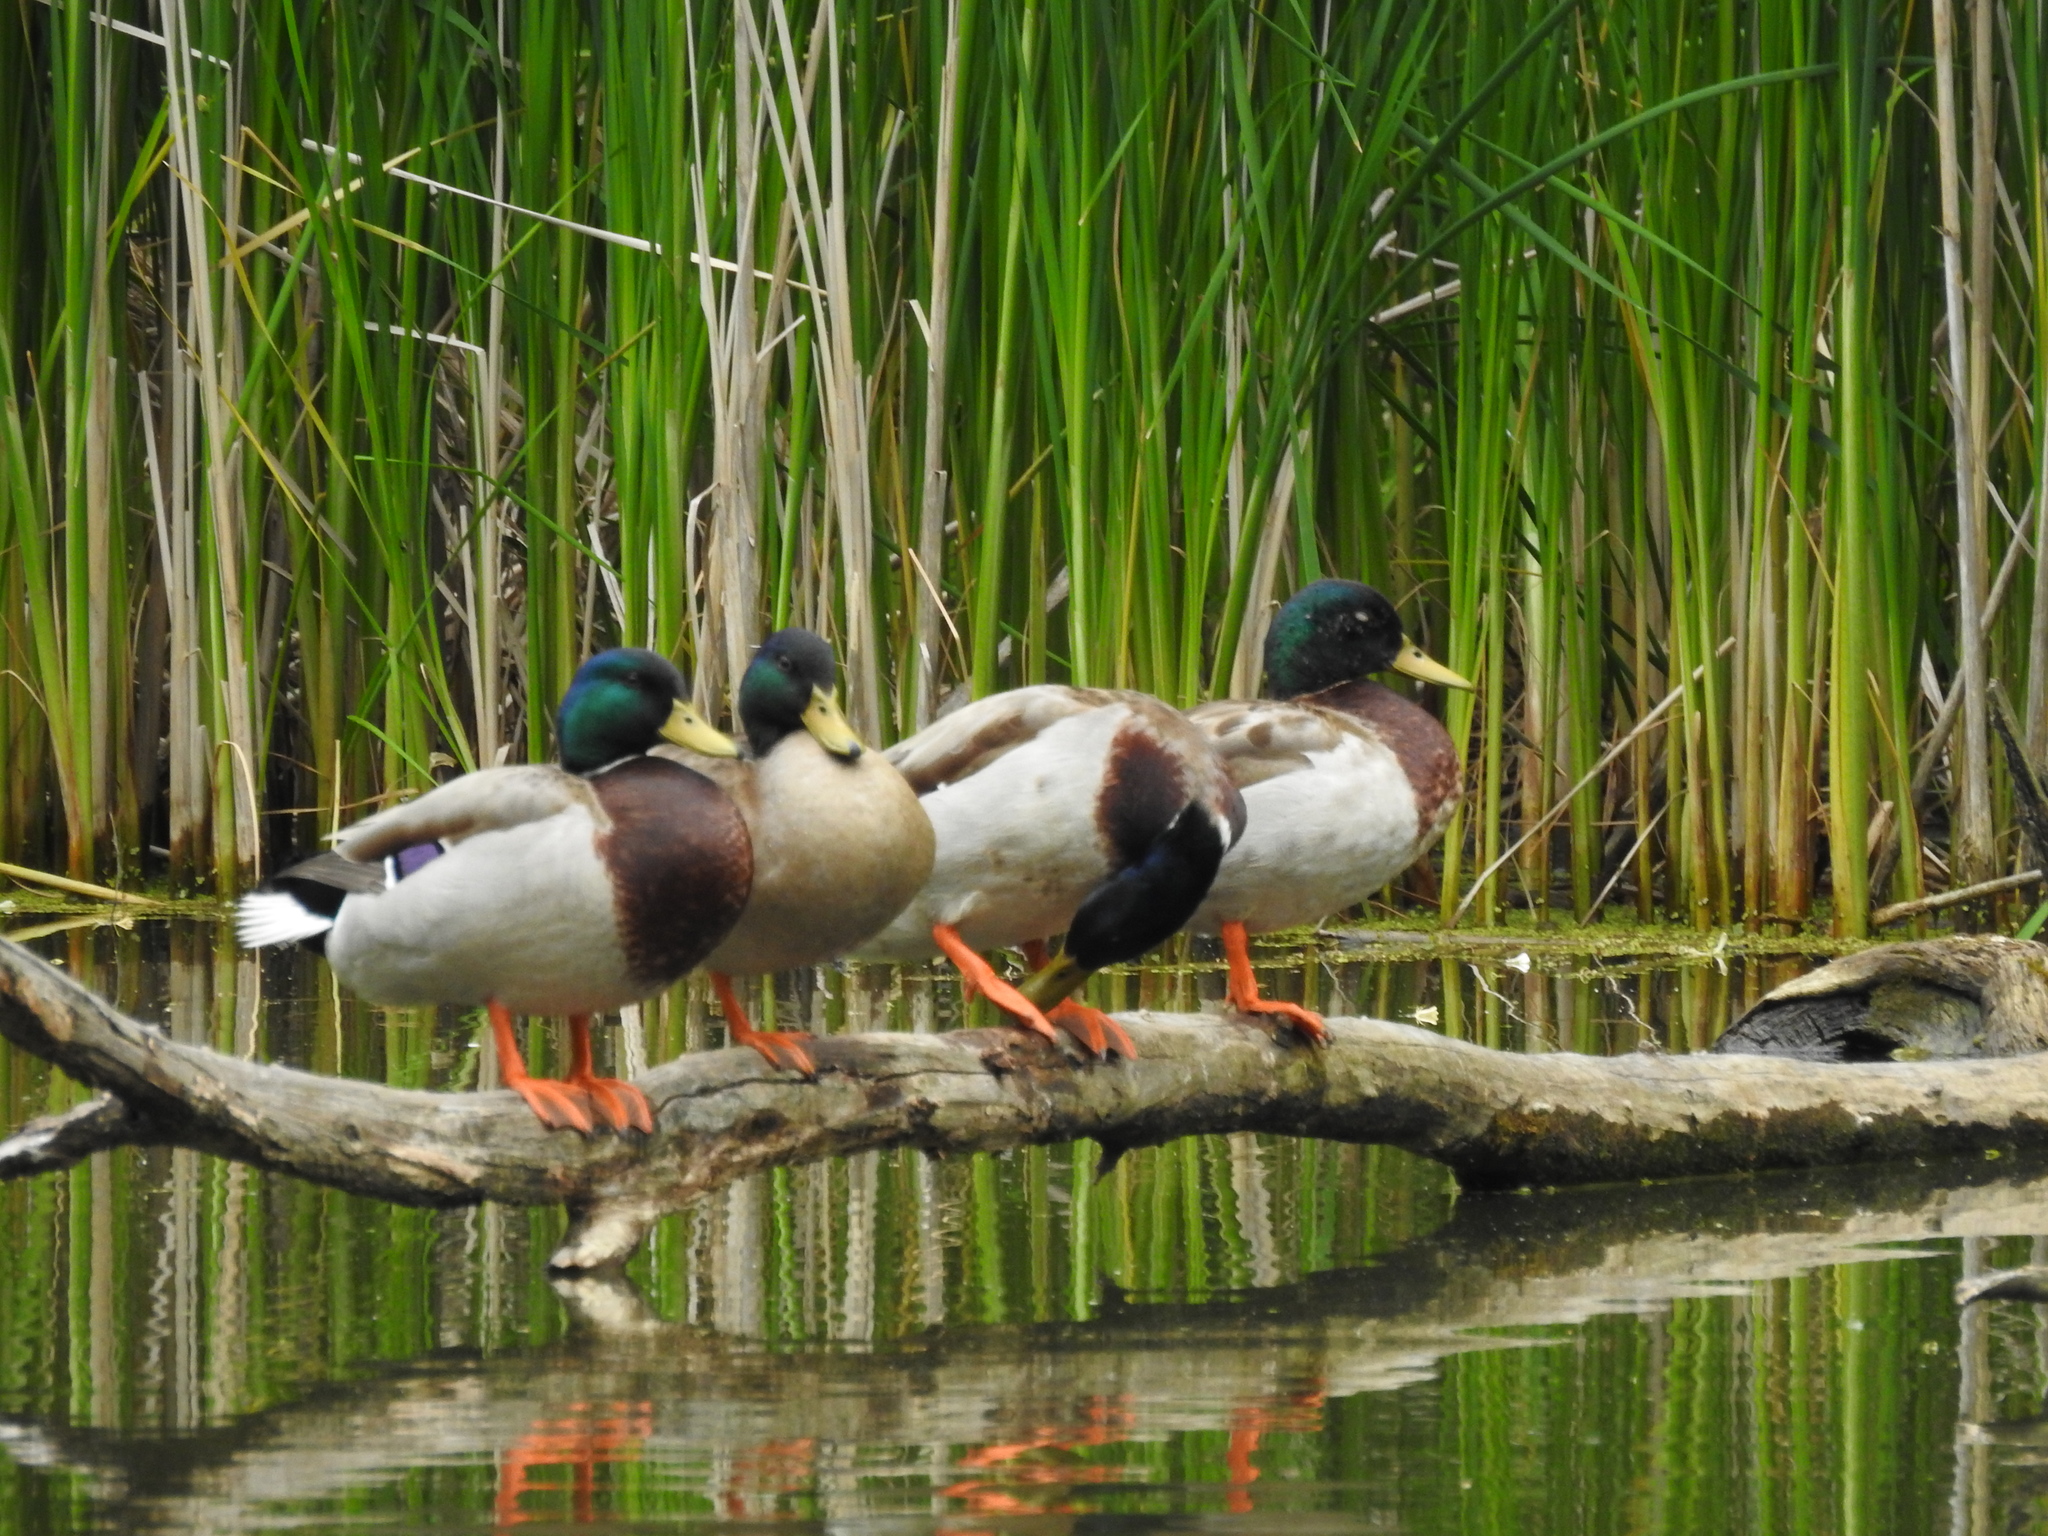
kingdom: Animalia
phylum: Chordata
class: Aves
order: Anseriformes
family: Anatidae
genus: Anas
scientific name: Anas platyrhynchos
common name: Mallard
